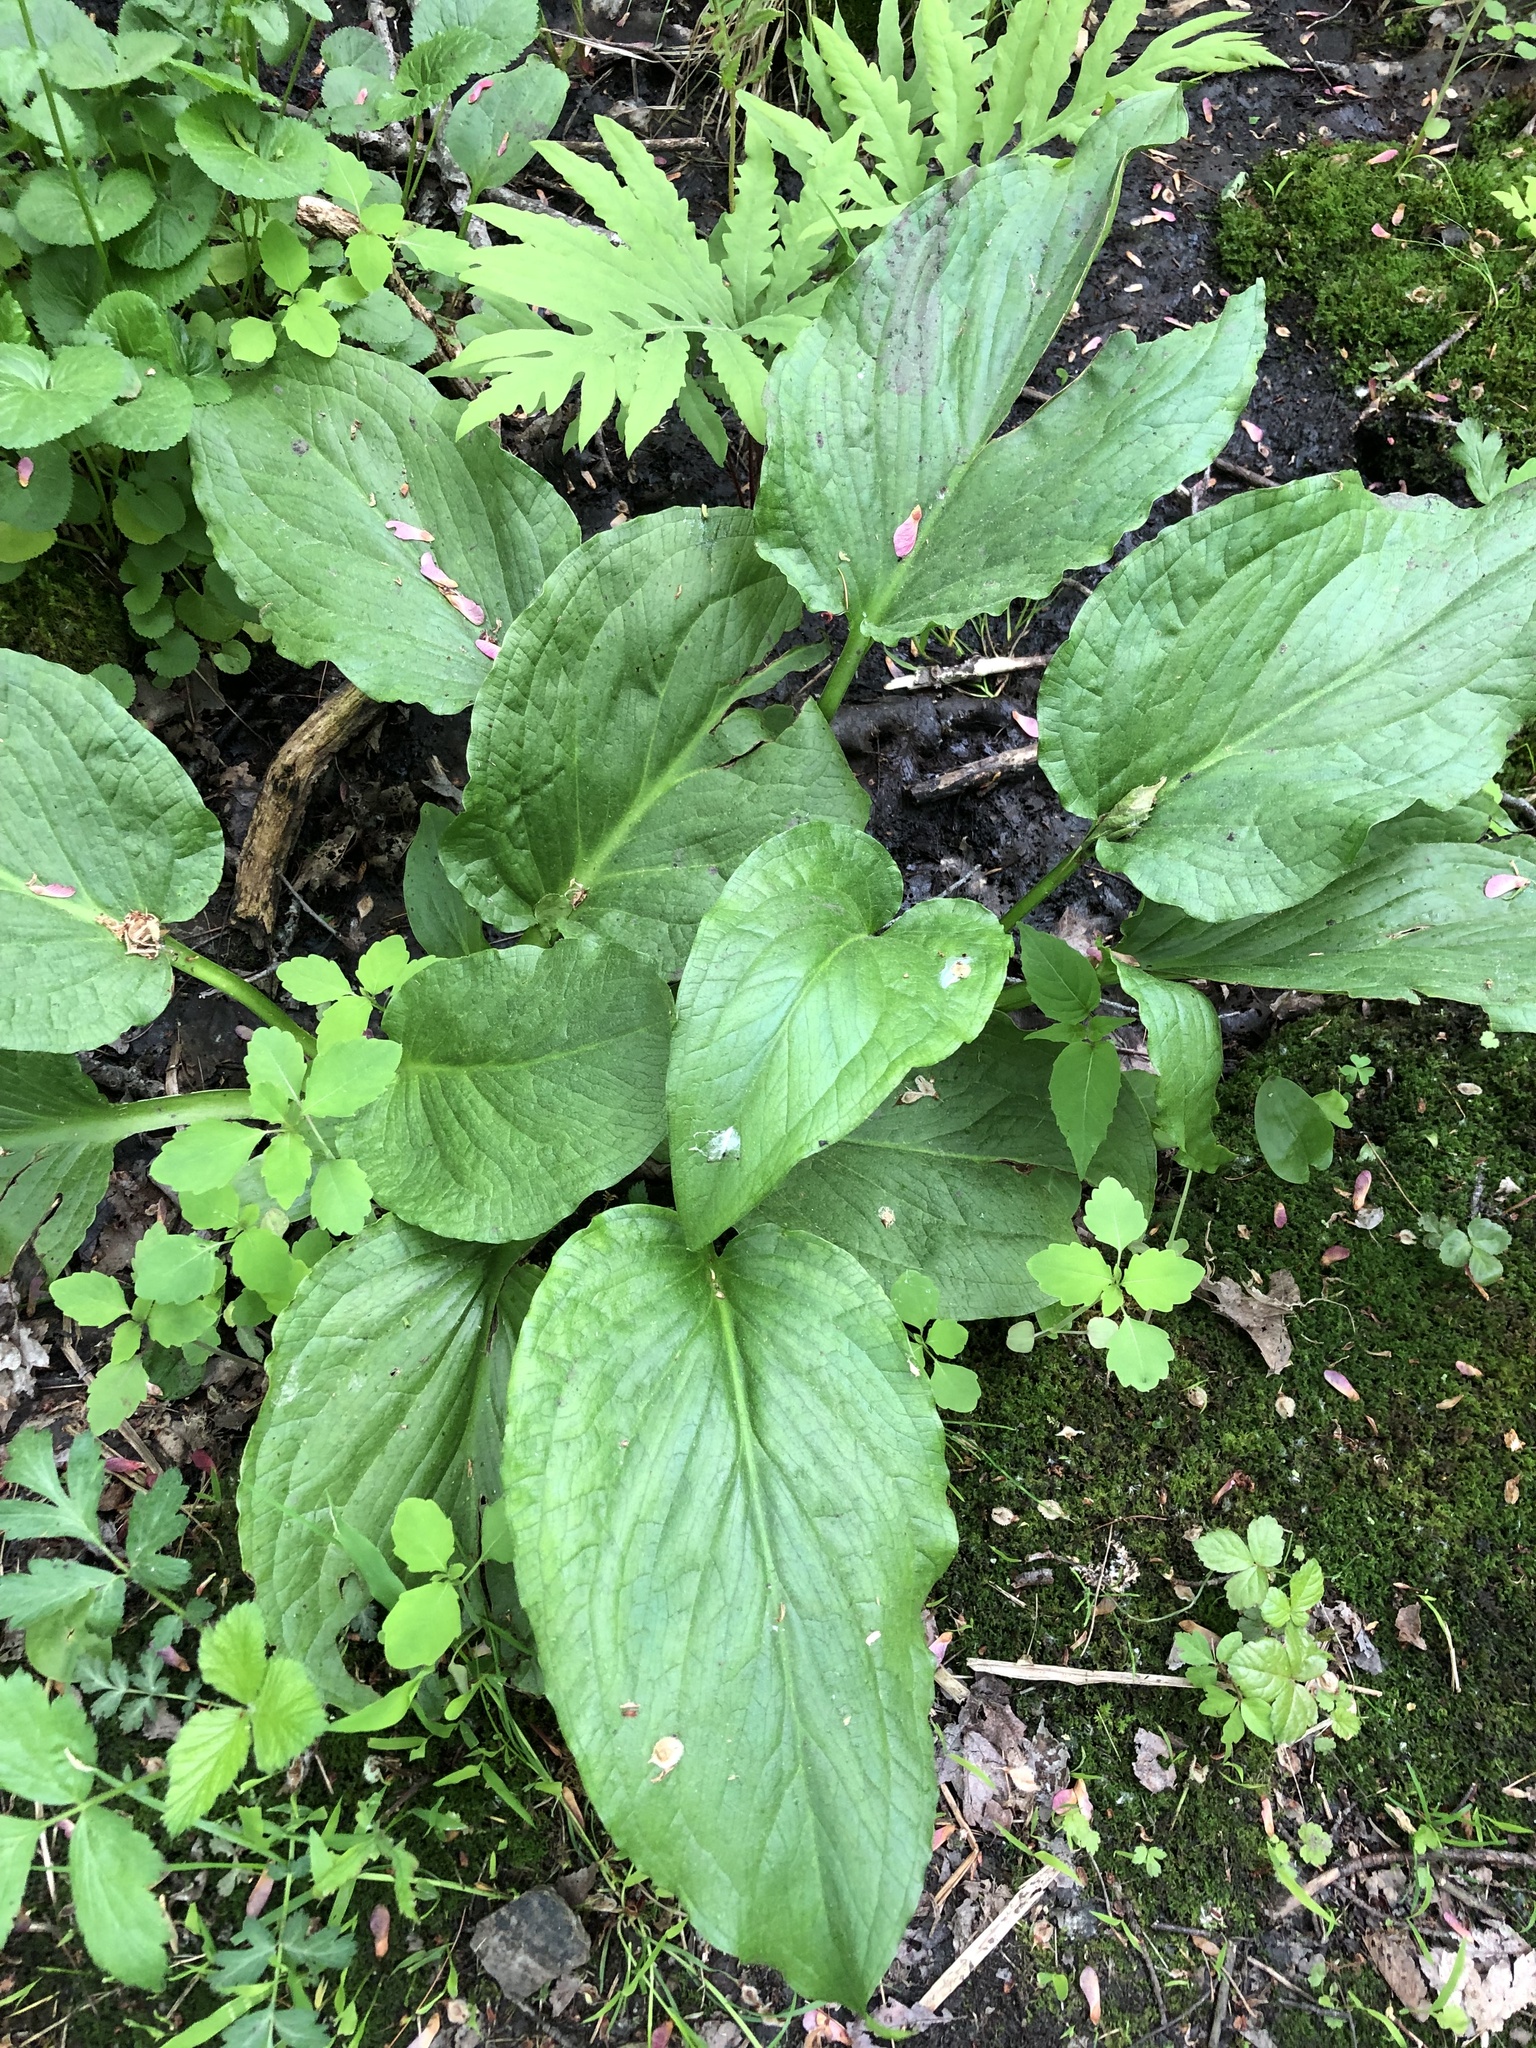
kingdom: Plantae
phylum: Tracheophyta
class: Liliopsida
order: Alismatales
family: Araceae
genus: Symplocarpus
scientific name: Symplocarpus foetidus
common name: Eastern skunk cabbage
